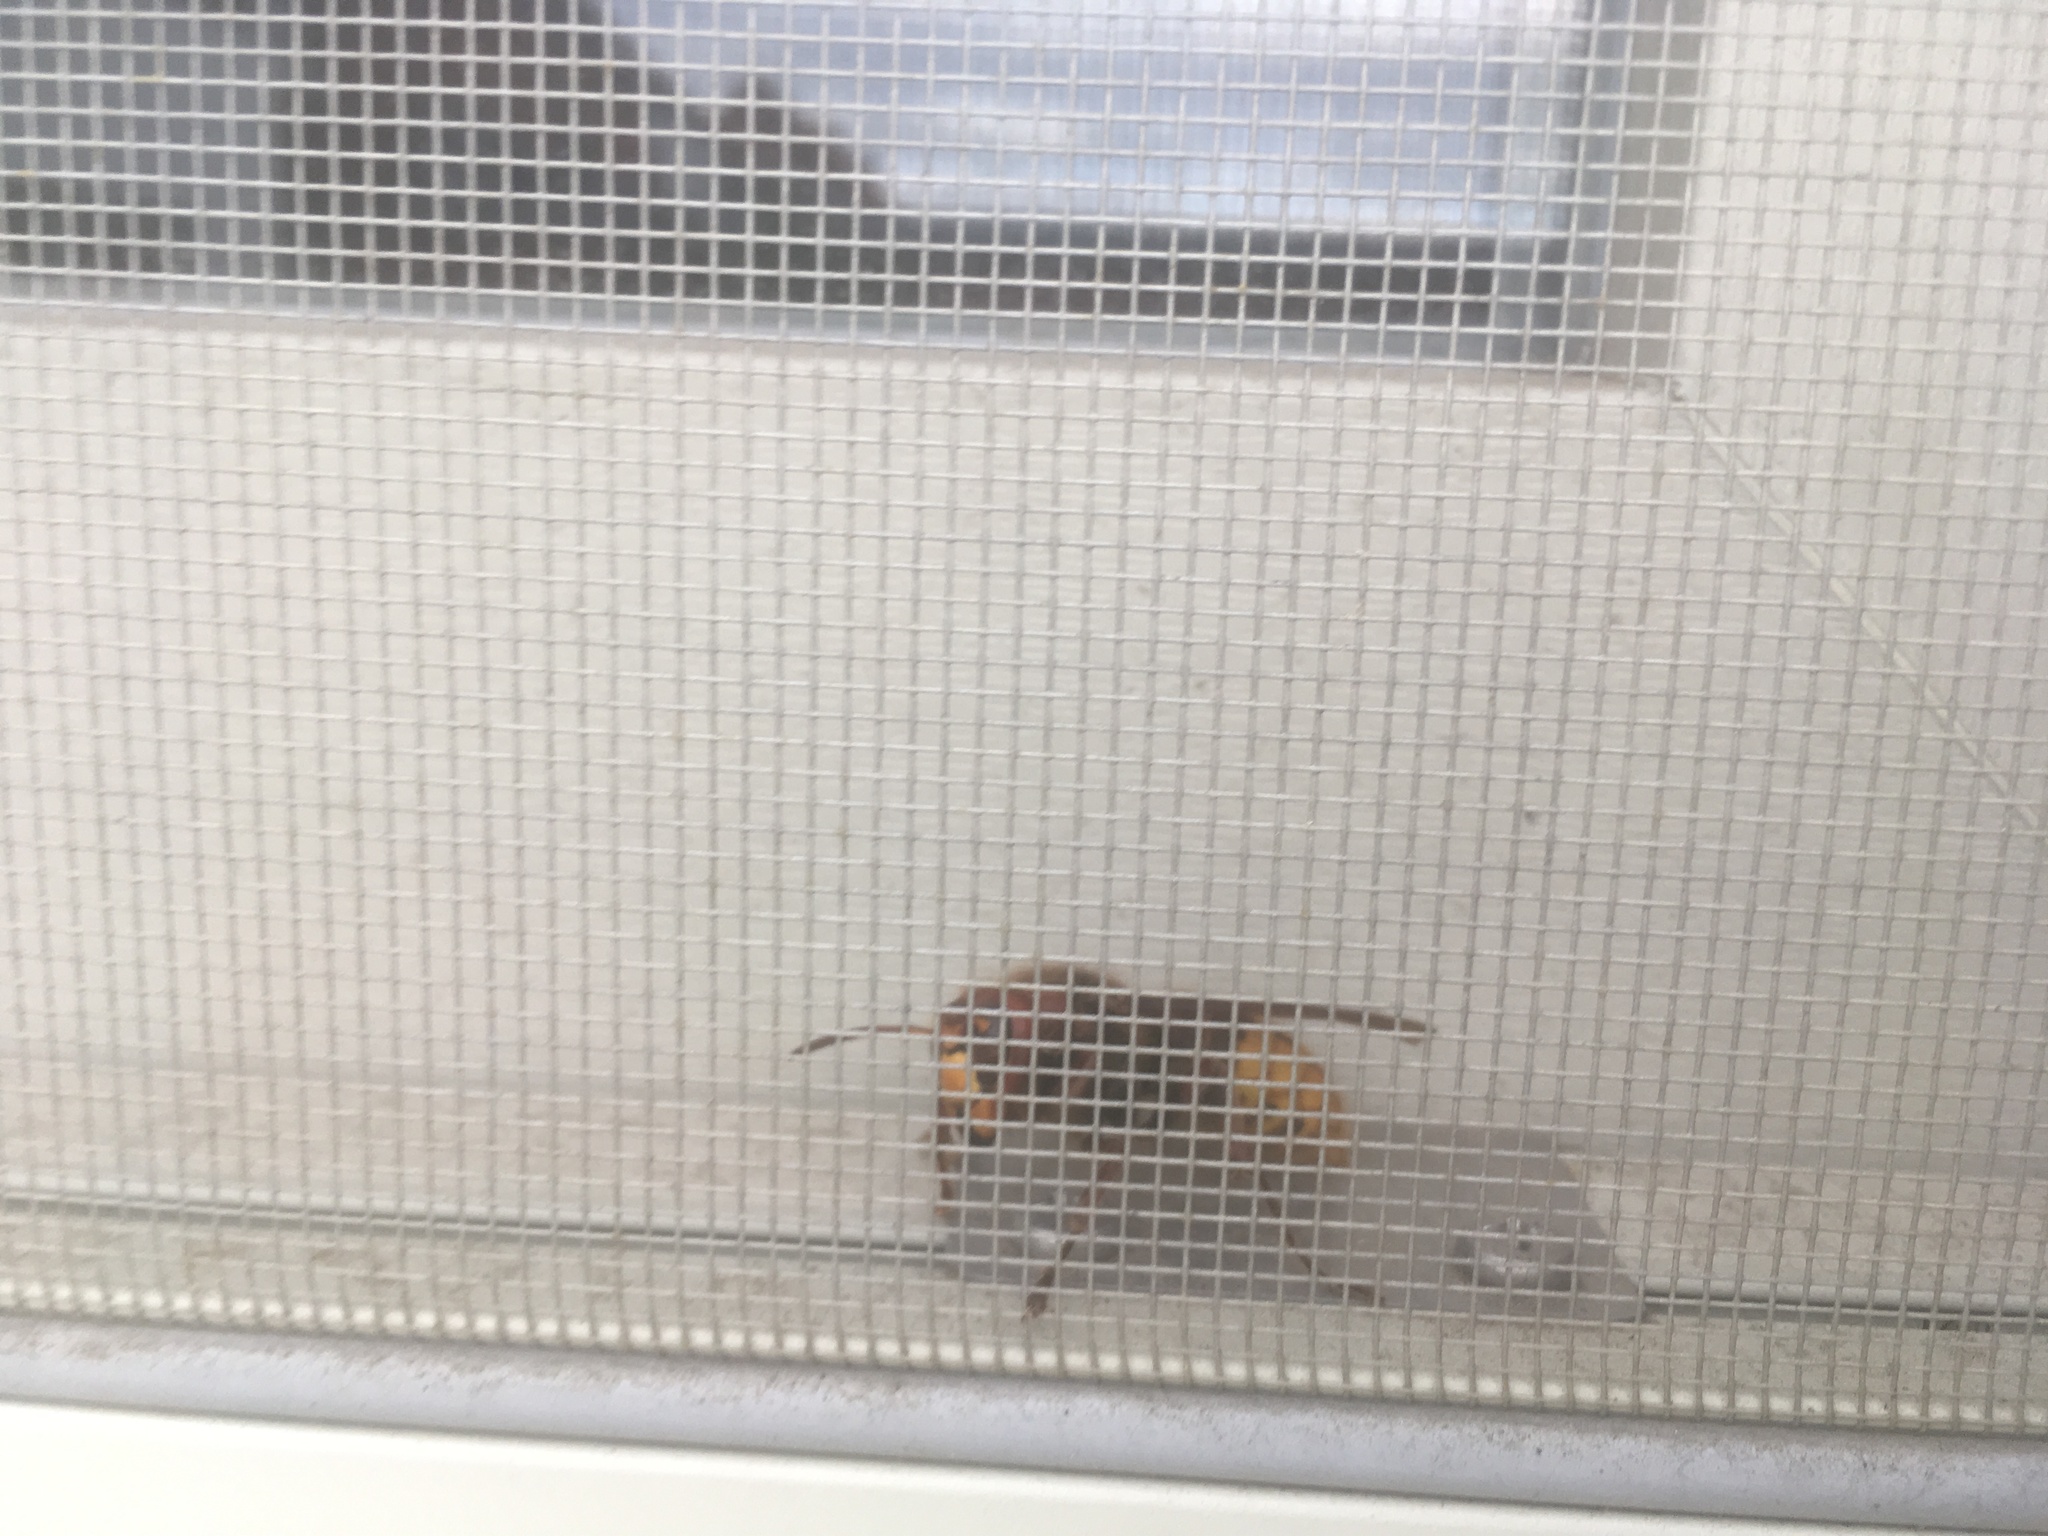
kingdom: Animalia
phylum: Arthropoda
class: Insecta
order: Hymenoptera
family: Vespidae
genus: Vespa
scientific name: Vespa crabro
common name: Hornet
